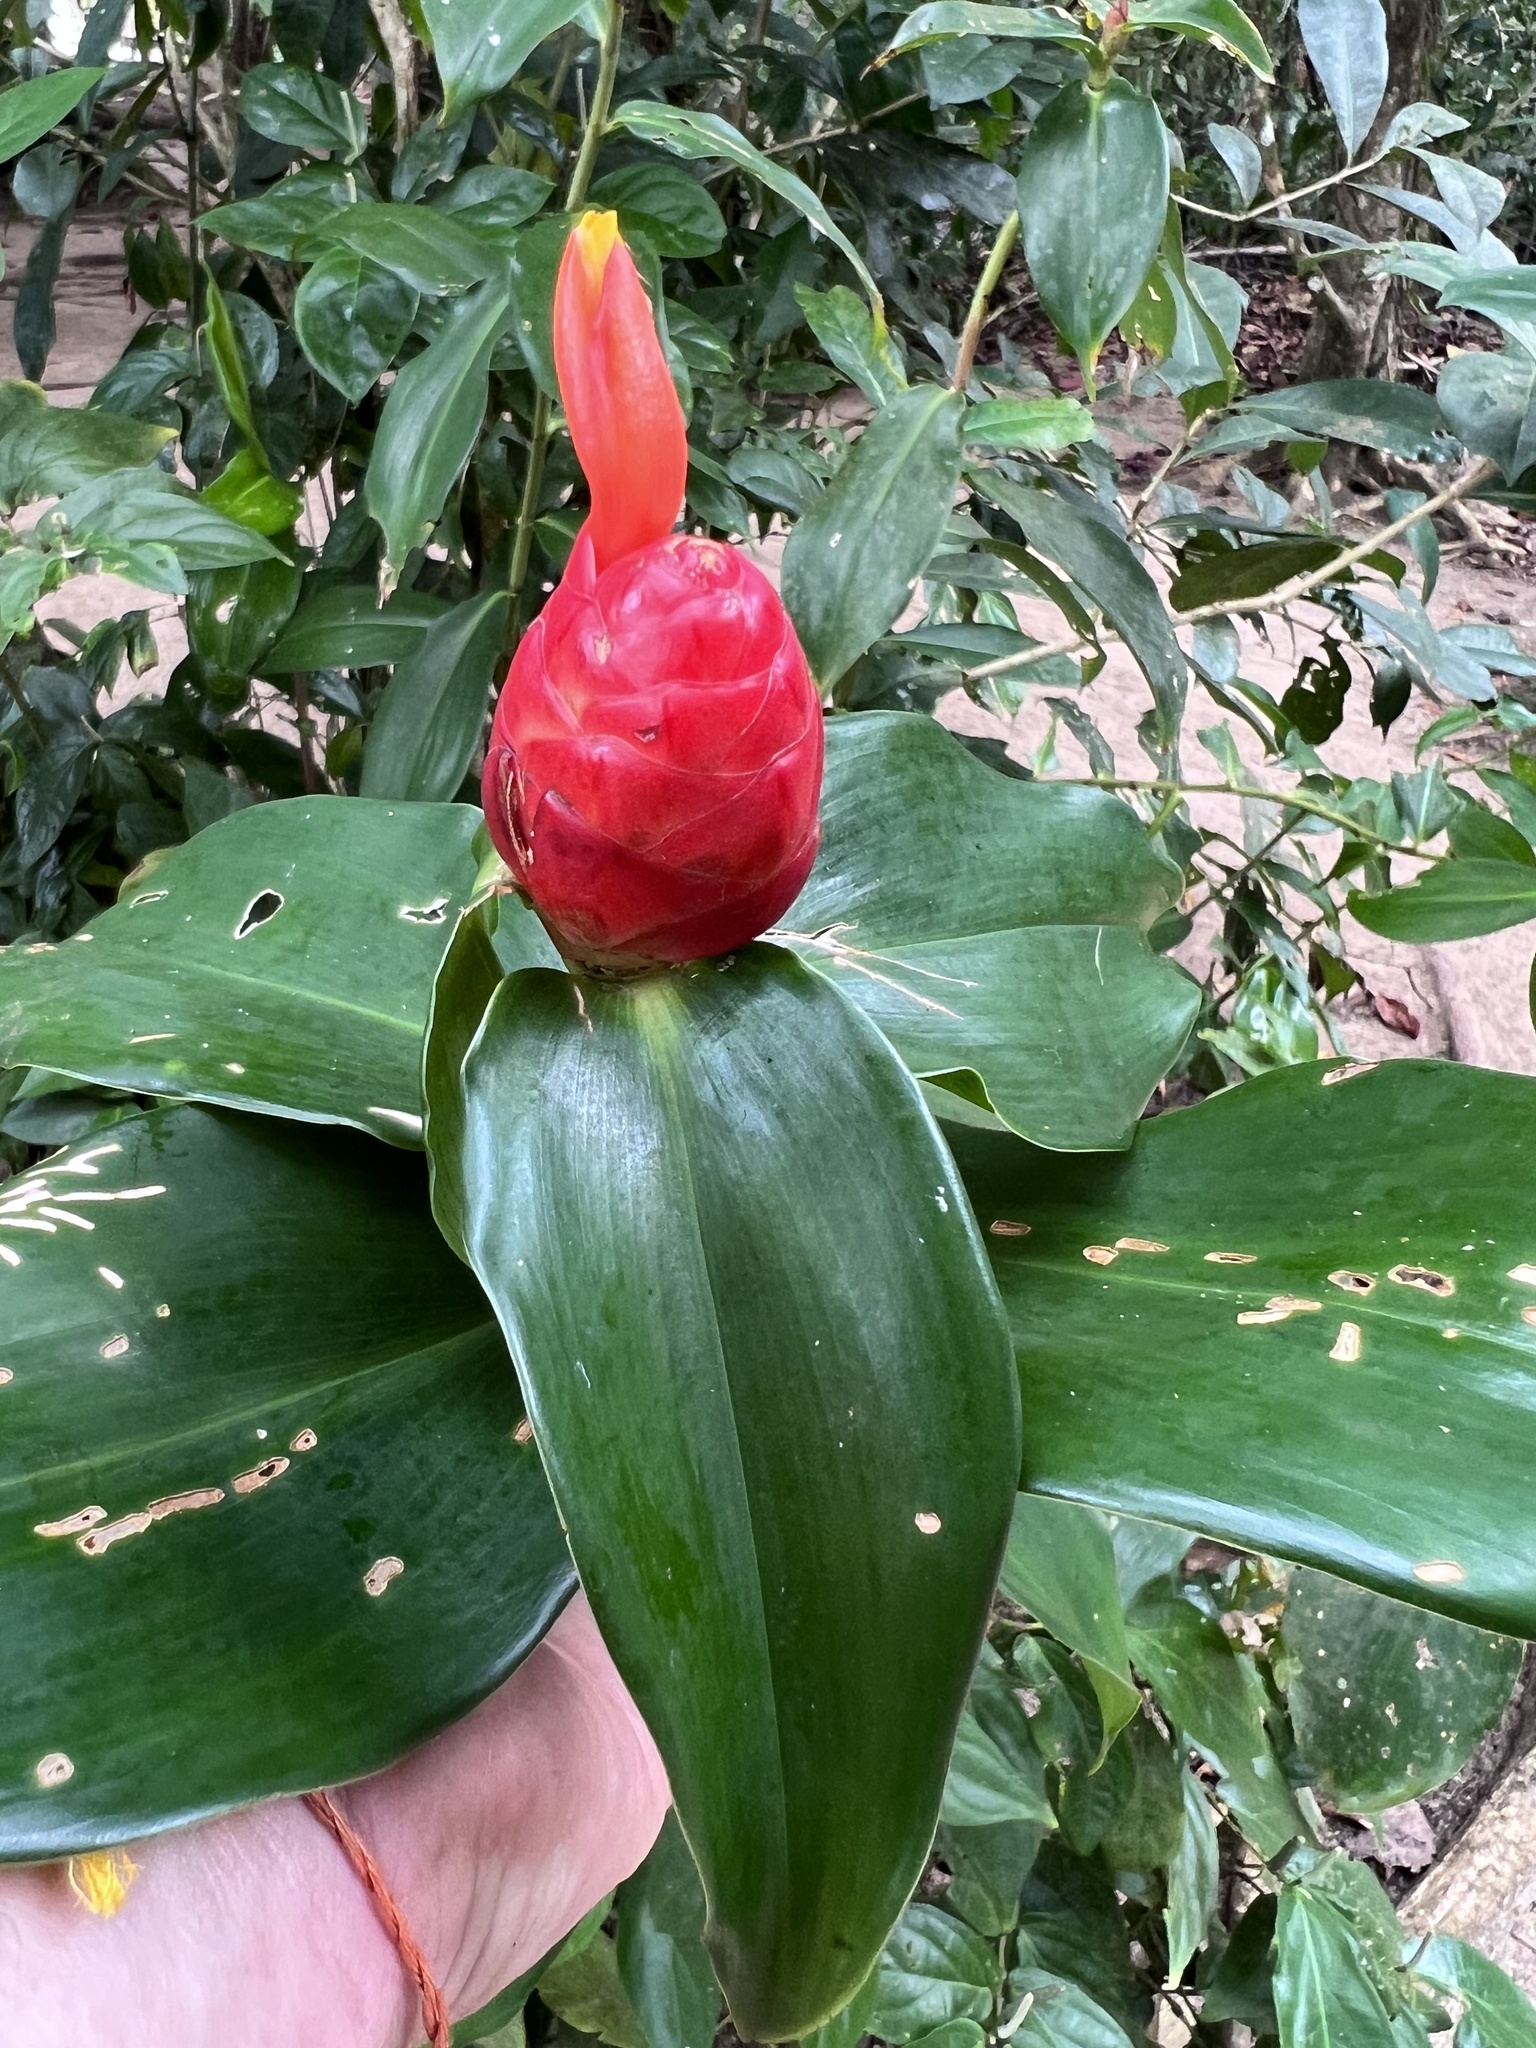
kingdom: Plantae
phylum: Tracheophyta
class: Liliopsida
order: Zingiberales
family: Costaceae
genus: Costus
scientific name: Costus woodsonii
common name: Scarlet spiral-ginger
